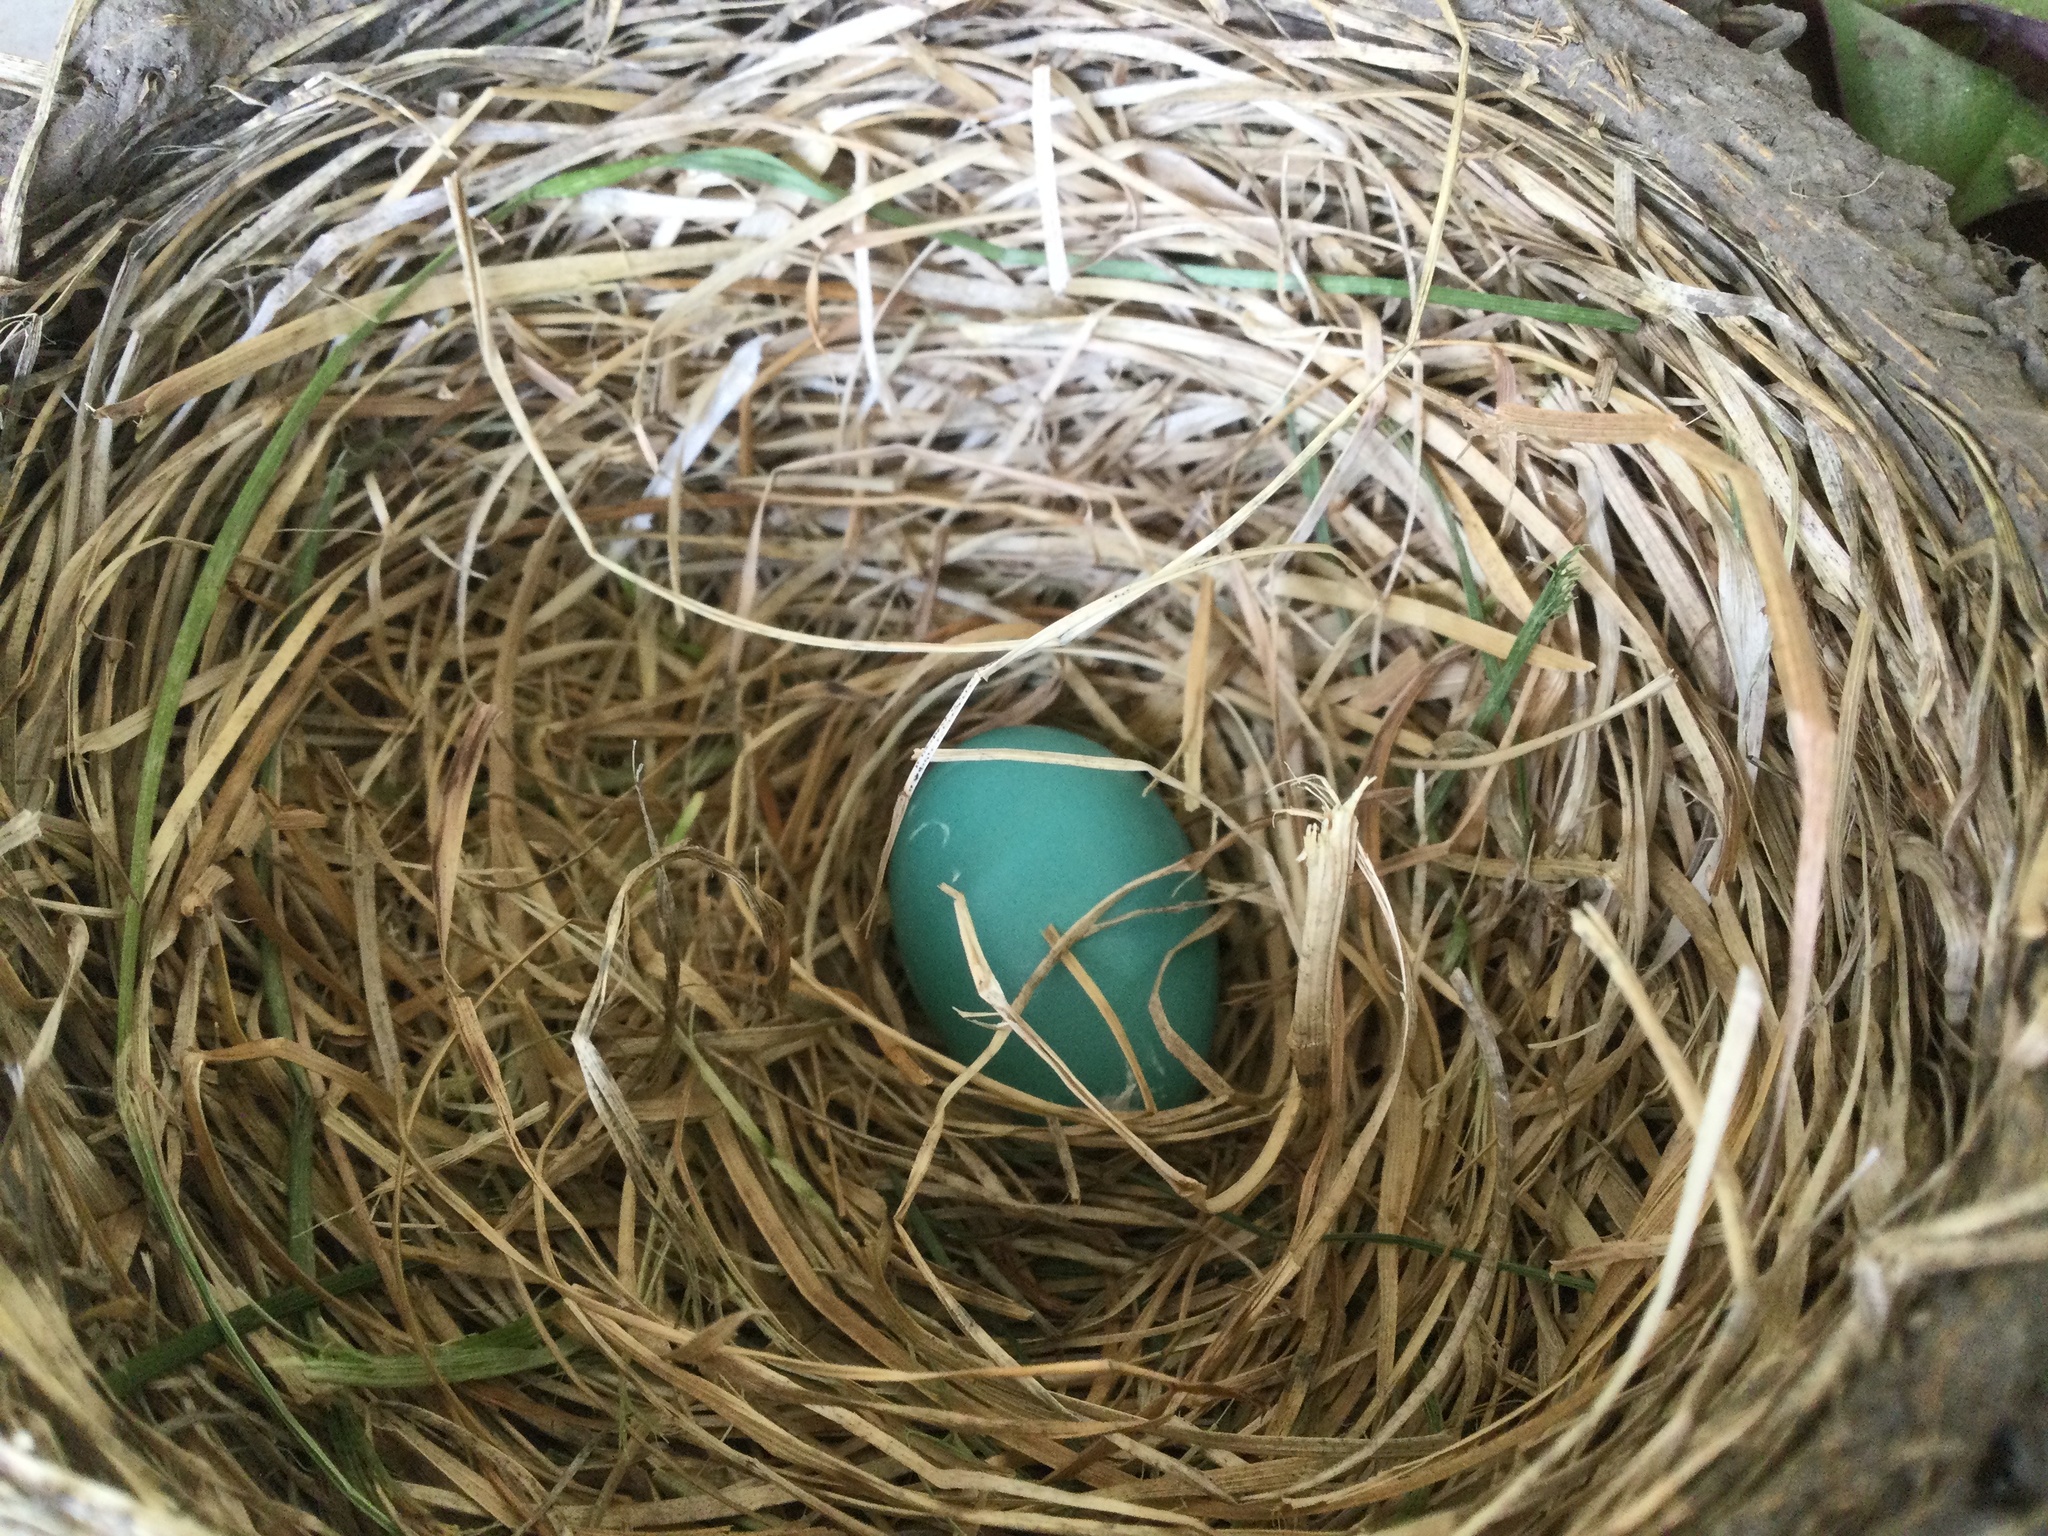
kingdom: Animalia
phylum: Chordata
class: Aves
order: Passeriformes
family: Turdidae
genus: Turdus
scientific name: Turdus migratorius
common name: American robin
